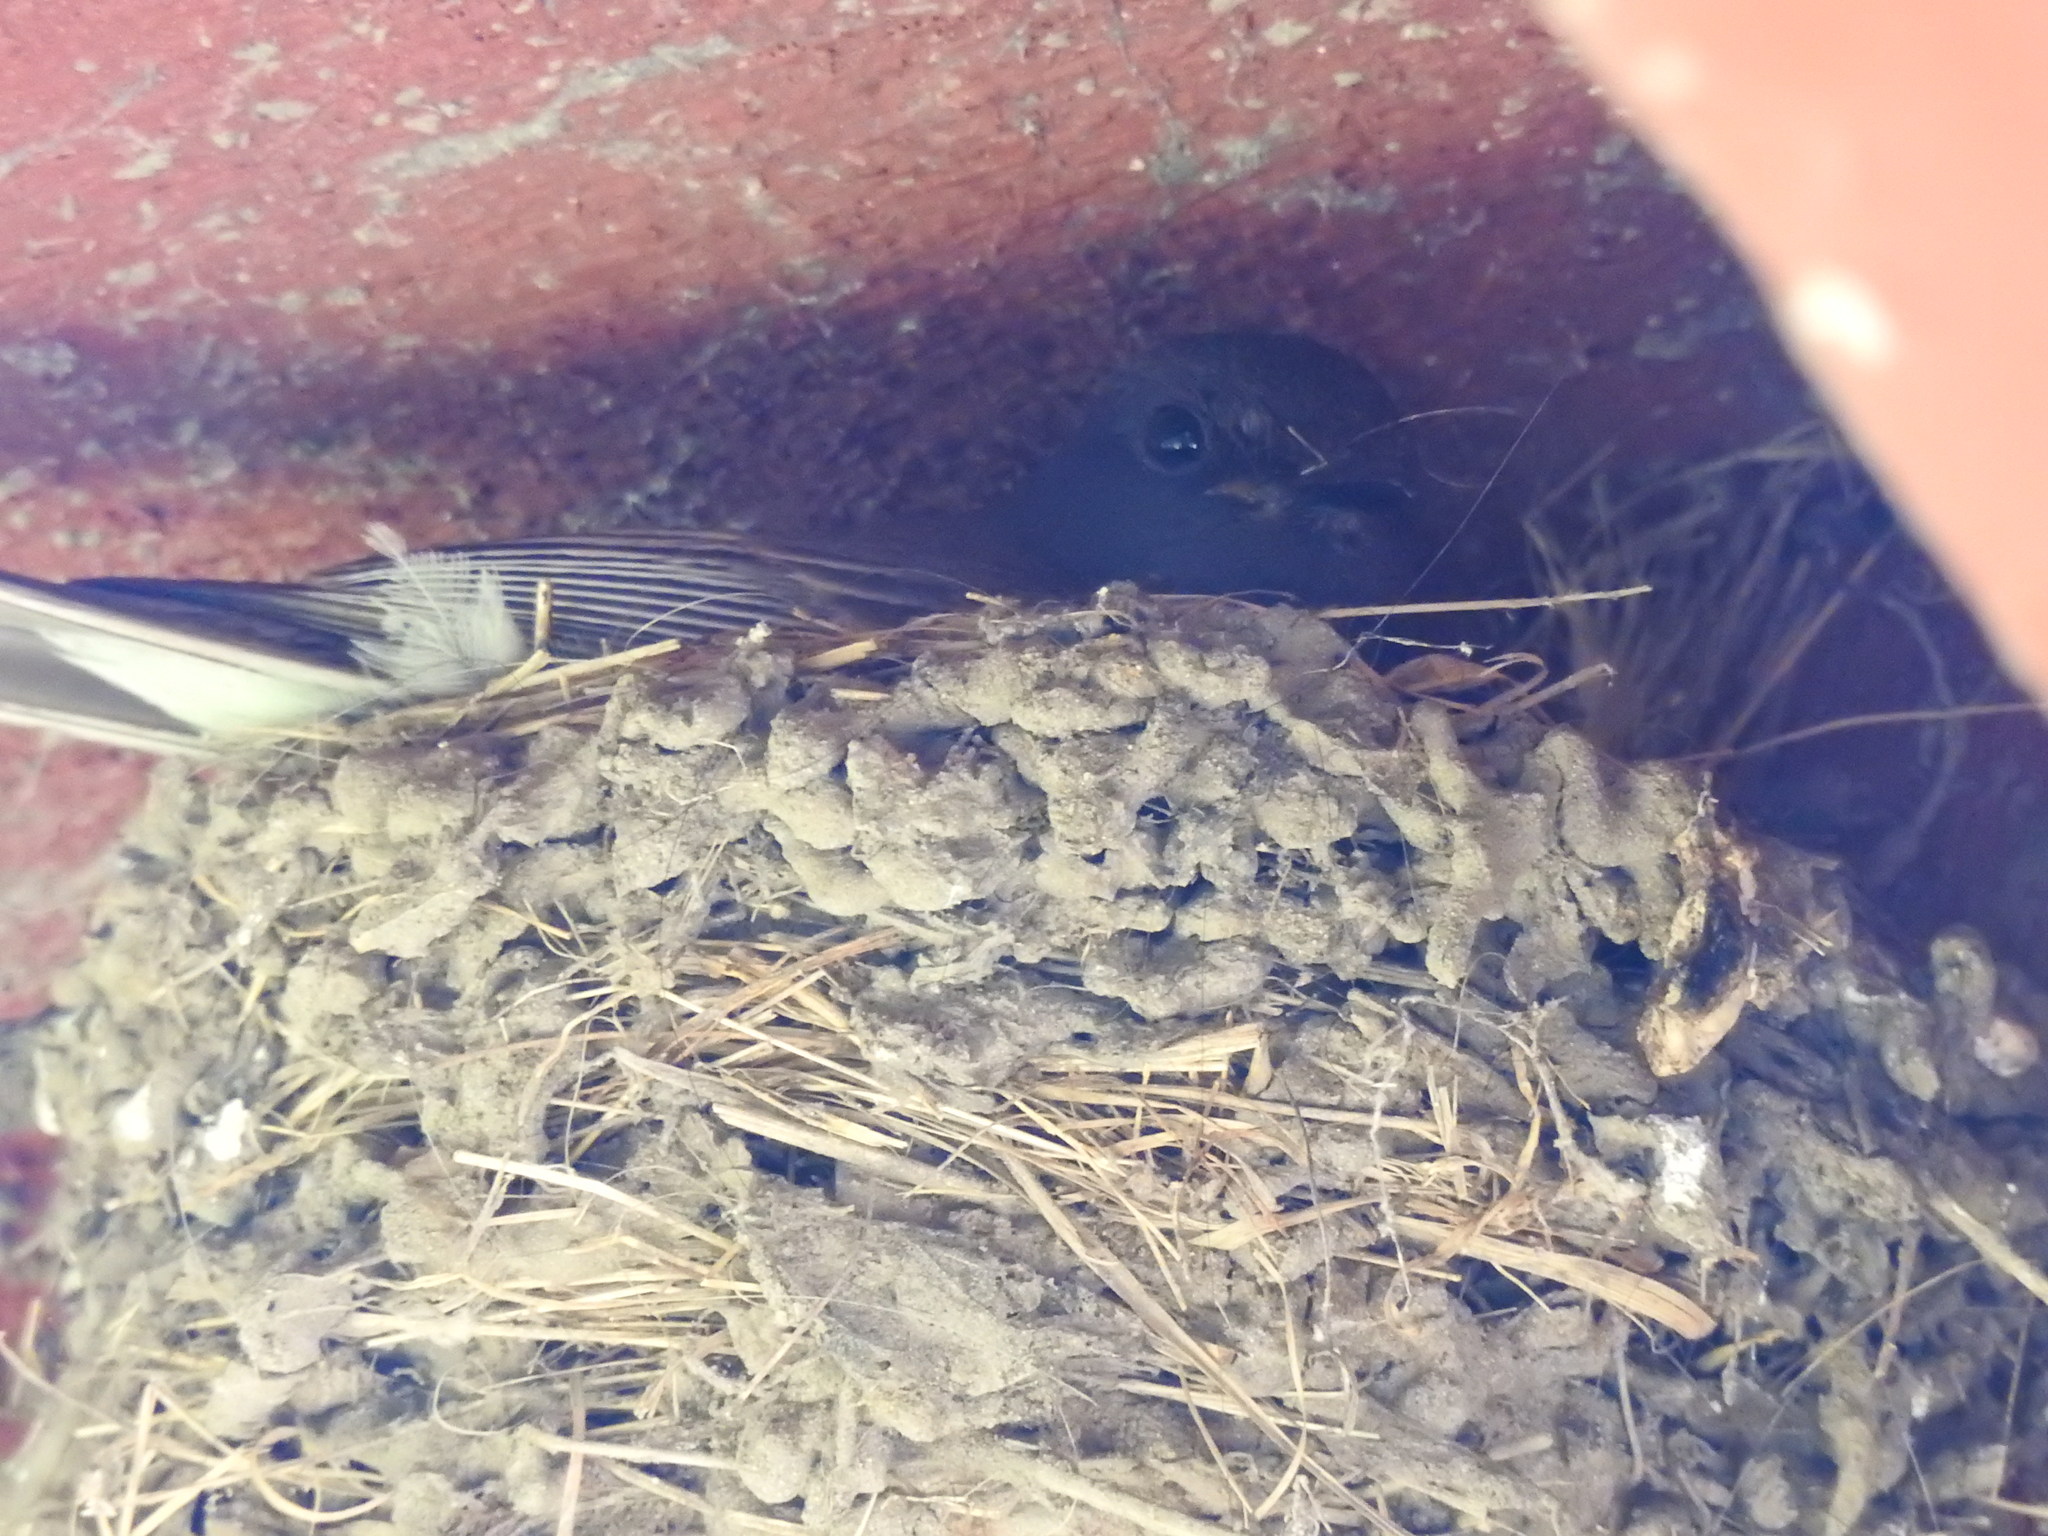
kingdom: Animalia
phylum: Chordata
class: Aves
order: Passeriformes
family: Tyrannidae
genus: Sayornis
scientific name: Sayornis nigricans
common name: Black phoebe
